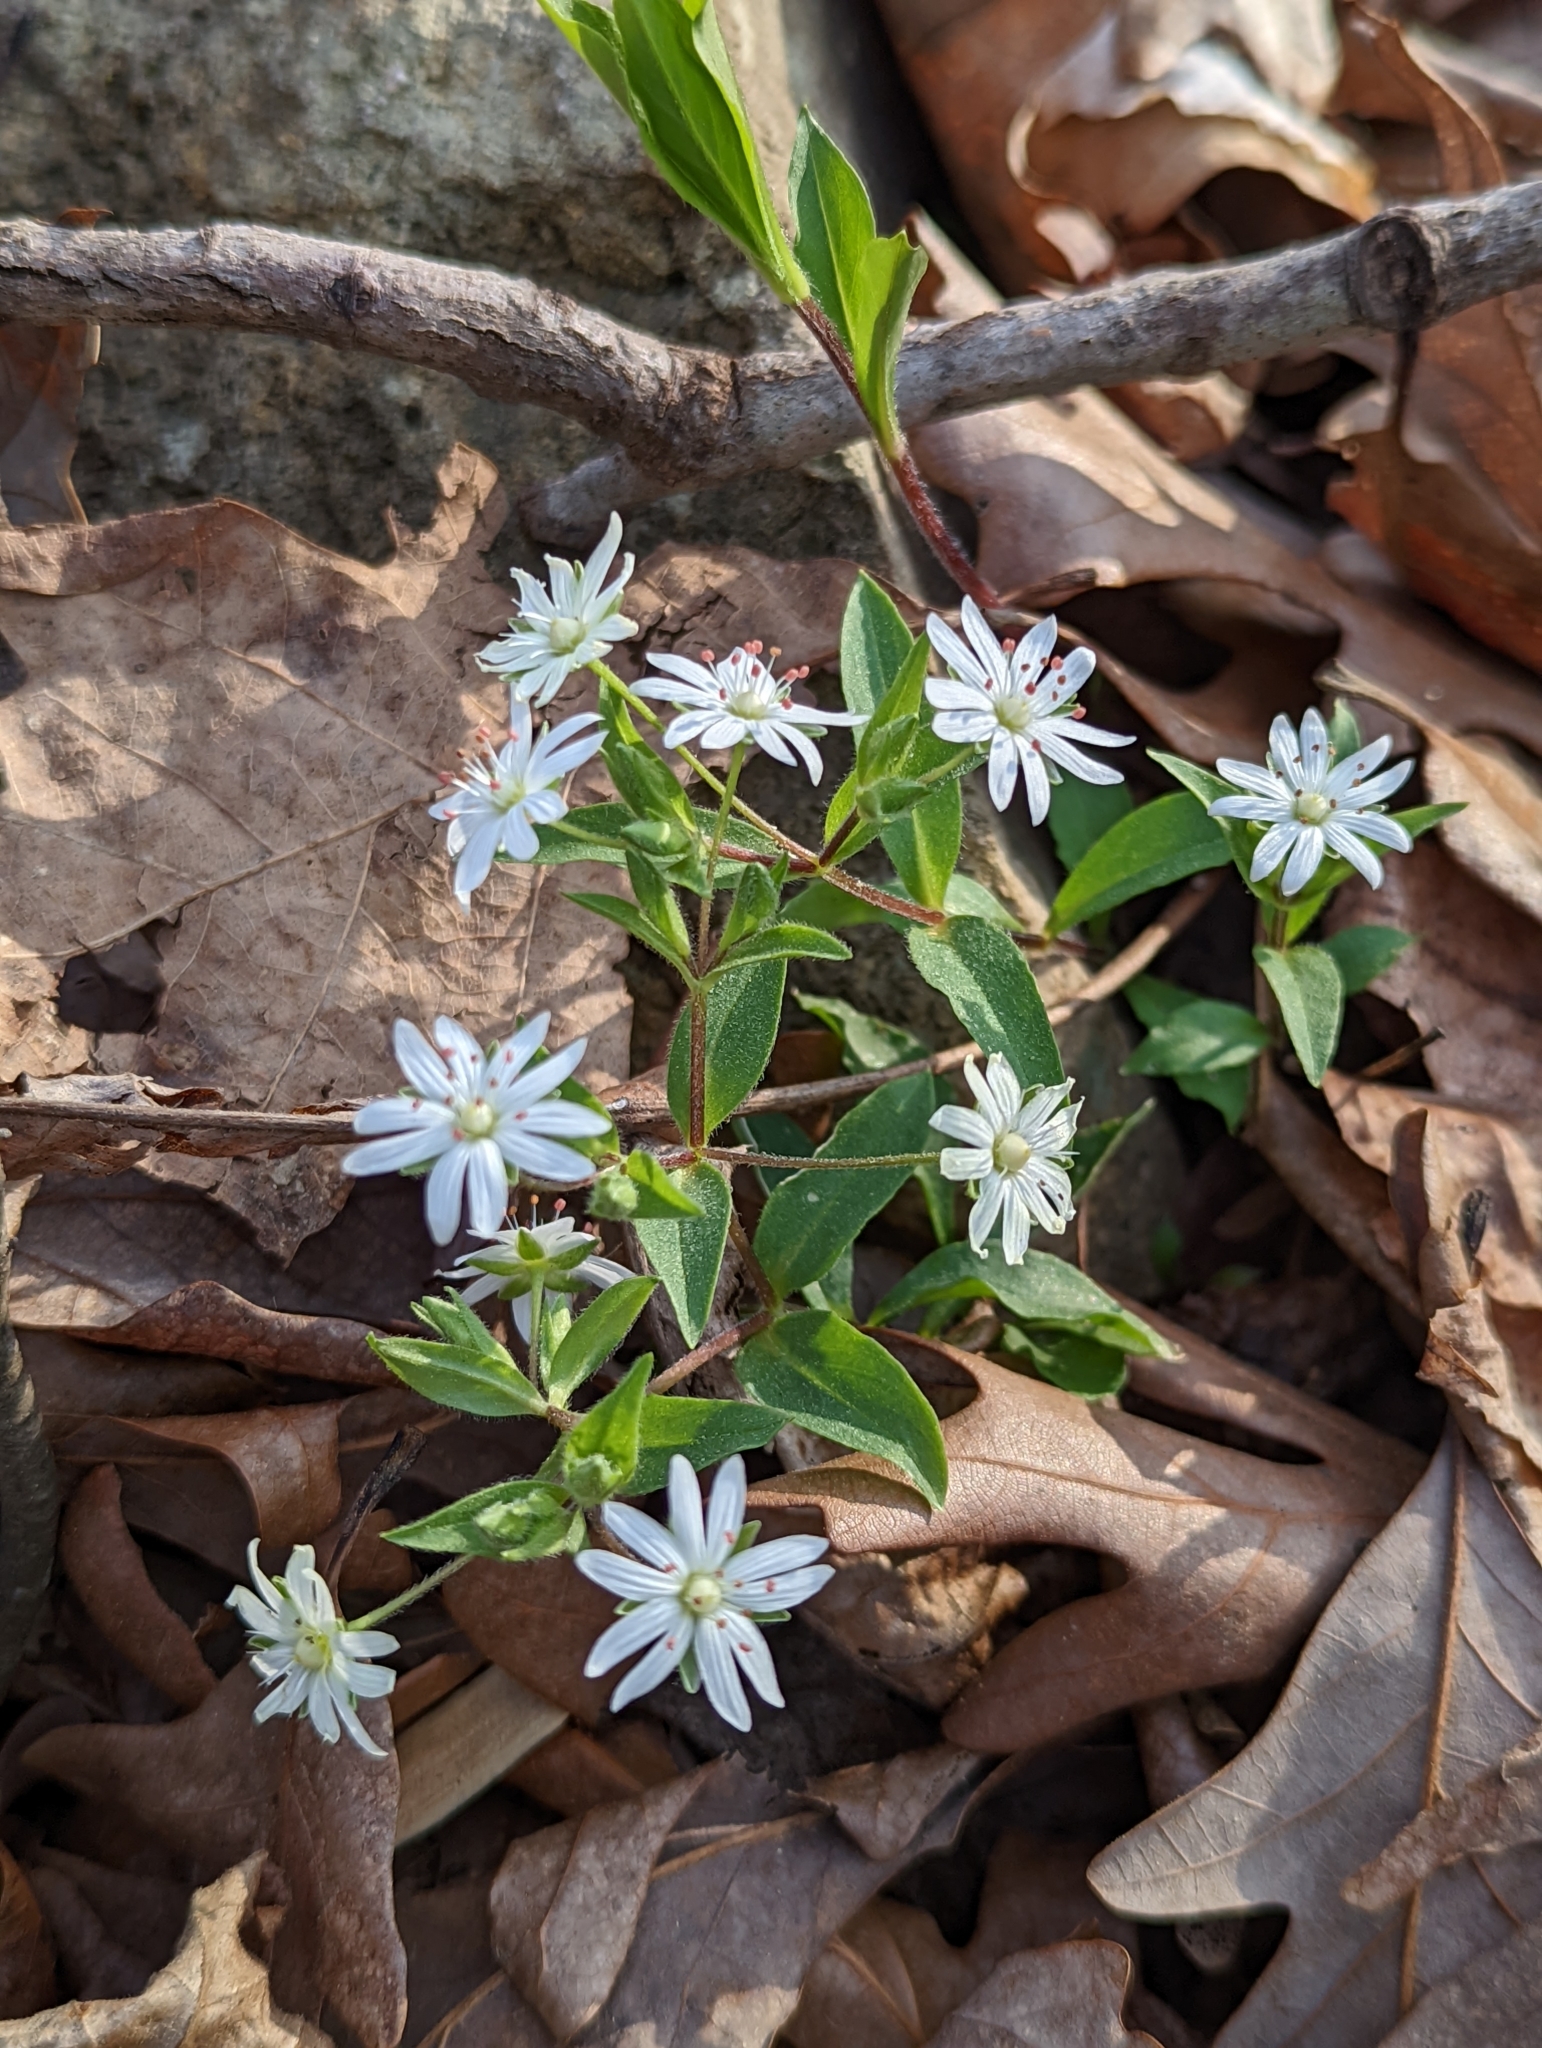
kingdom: Plantae
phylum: Tracheophyta
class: Magnoliopsida
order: Caryophyllales
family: Caryophyllaceae
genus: Stellaria
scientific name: Stellaria pubera
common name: Star chickweed
